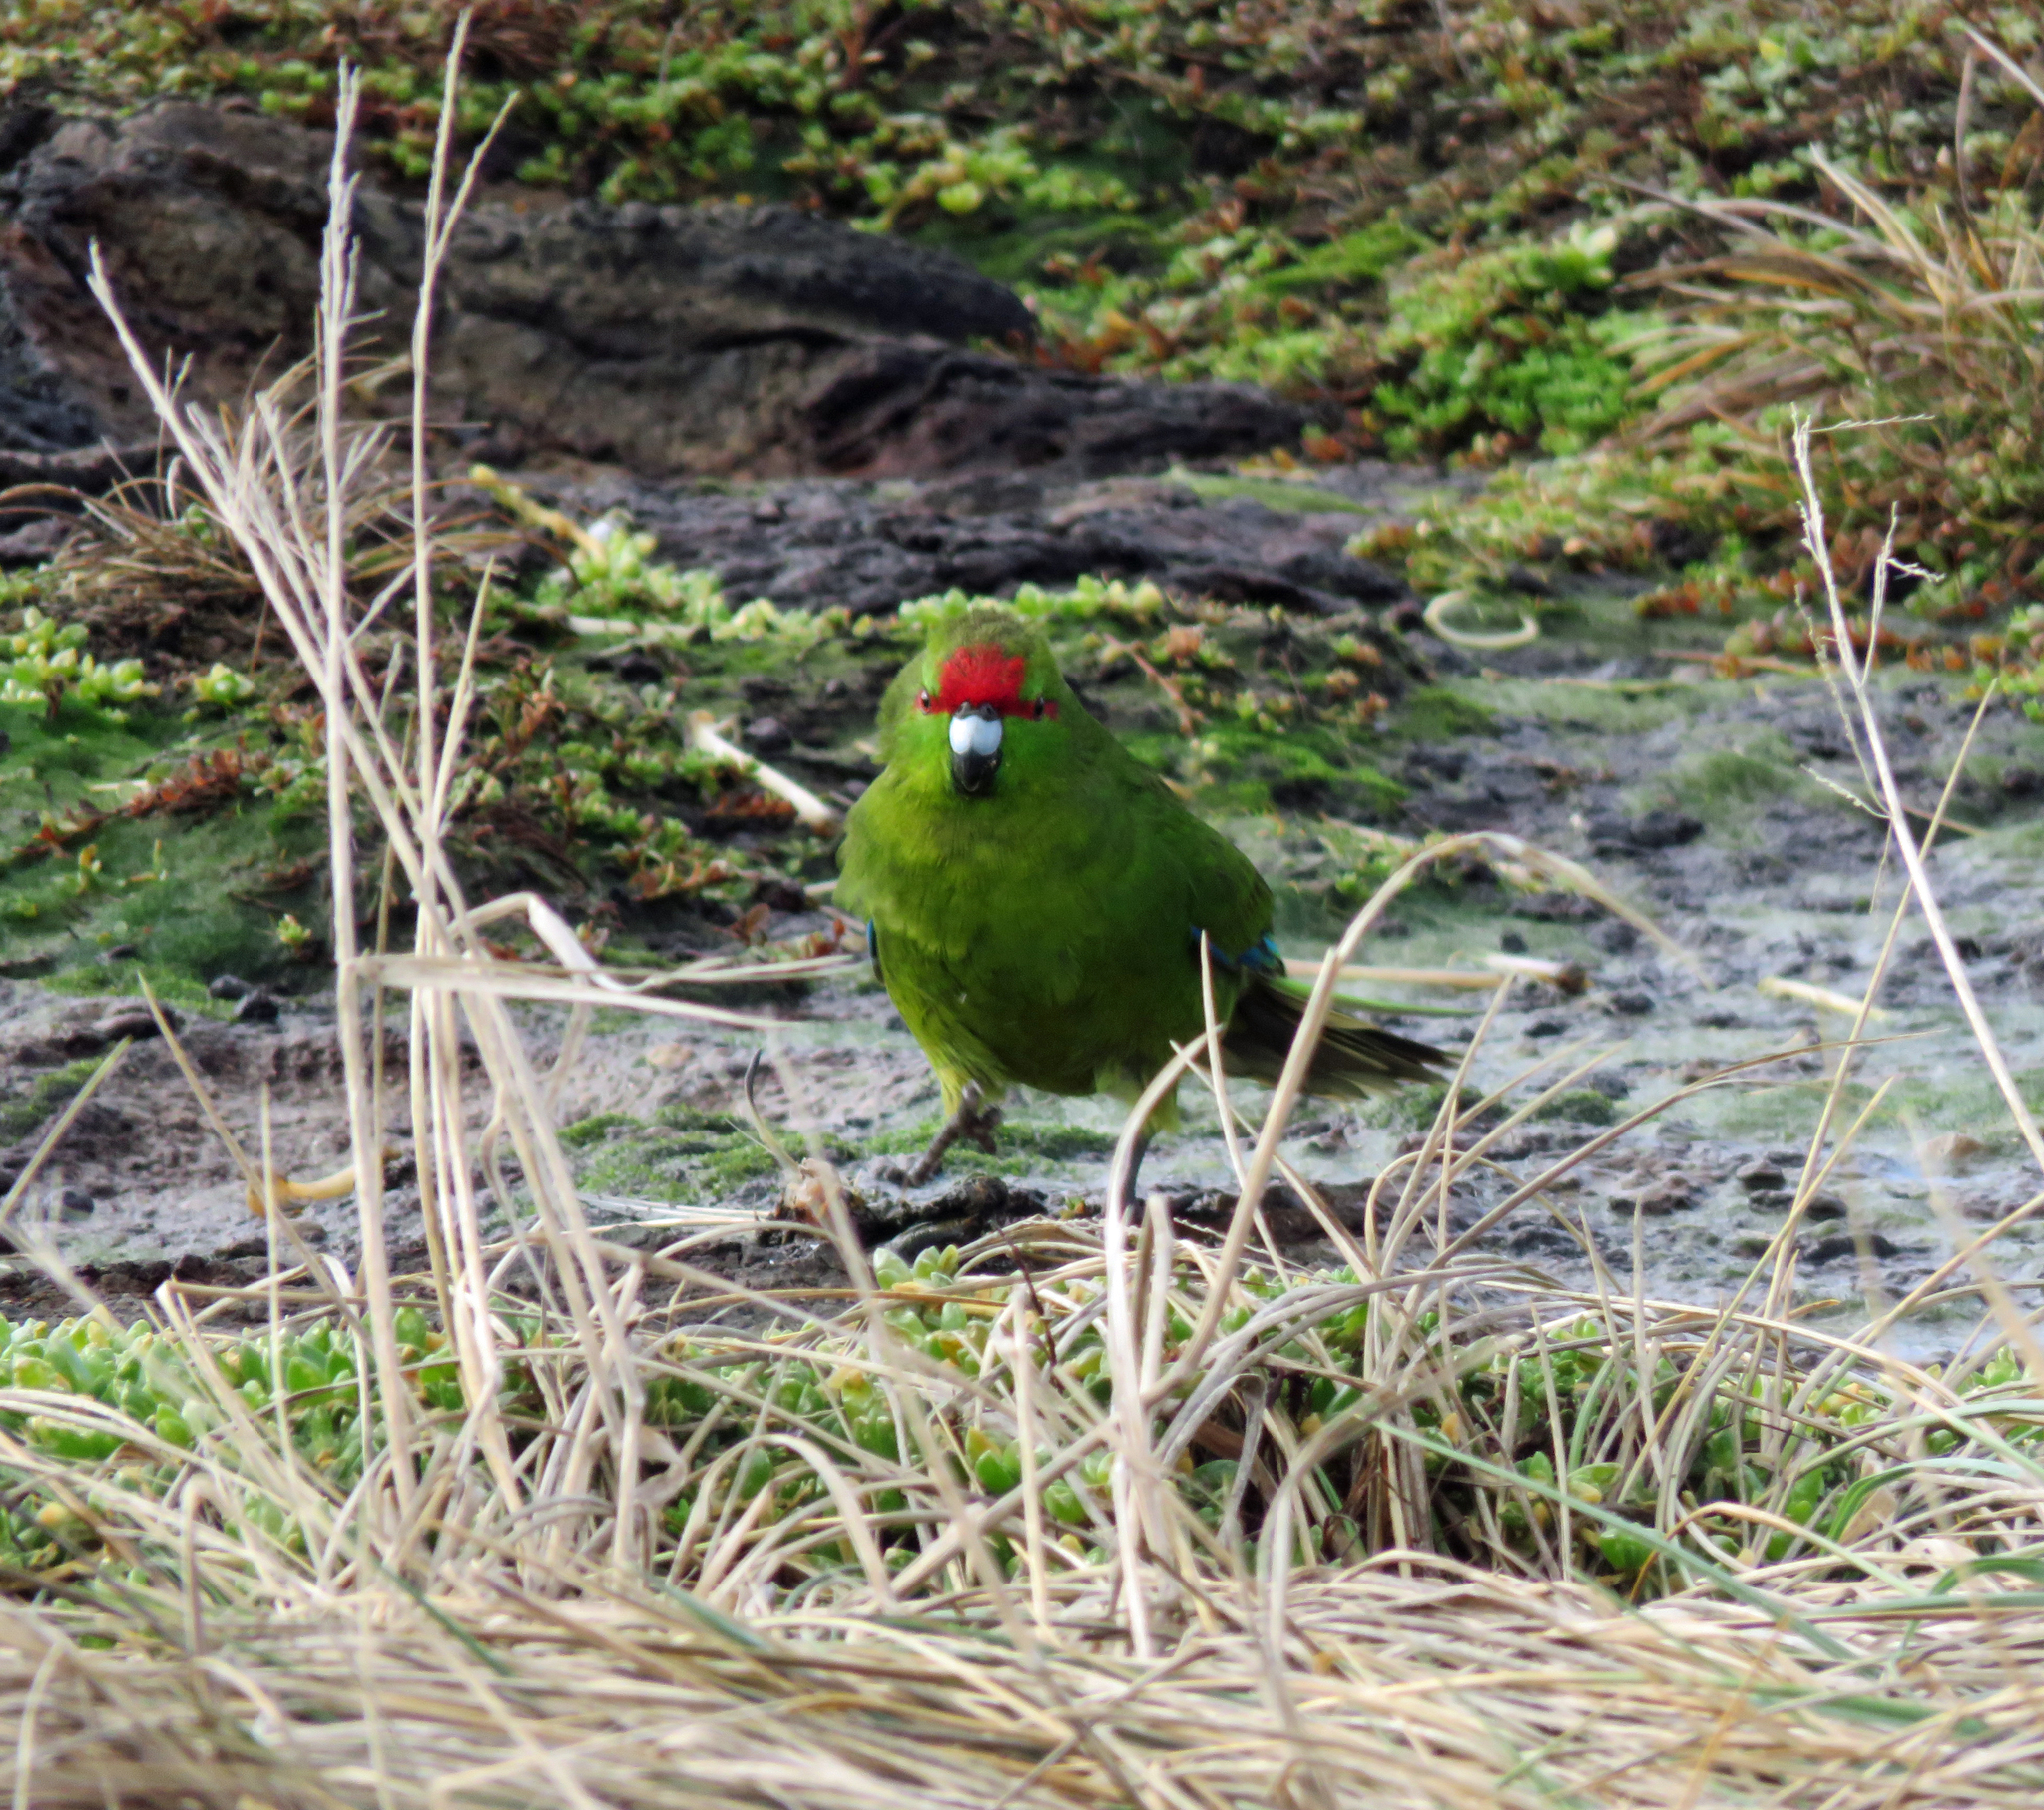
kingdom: Animalia
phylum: Chordata
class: Aves
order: Psittaciformes
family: Psittacidae
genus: Cyanoramphus
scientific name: Cyanoramphus novaezelandiae
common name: Red-fronted parakeet
